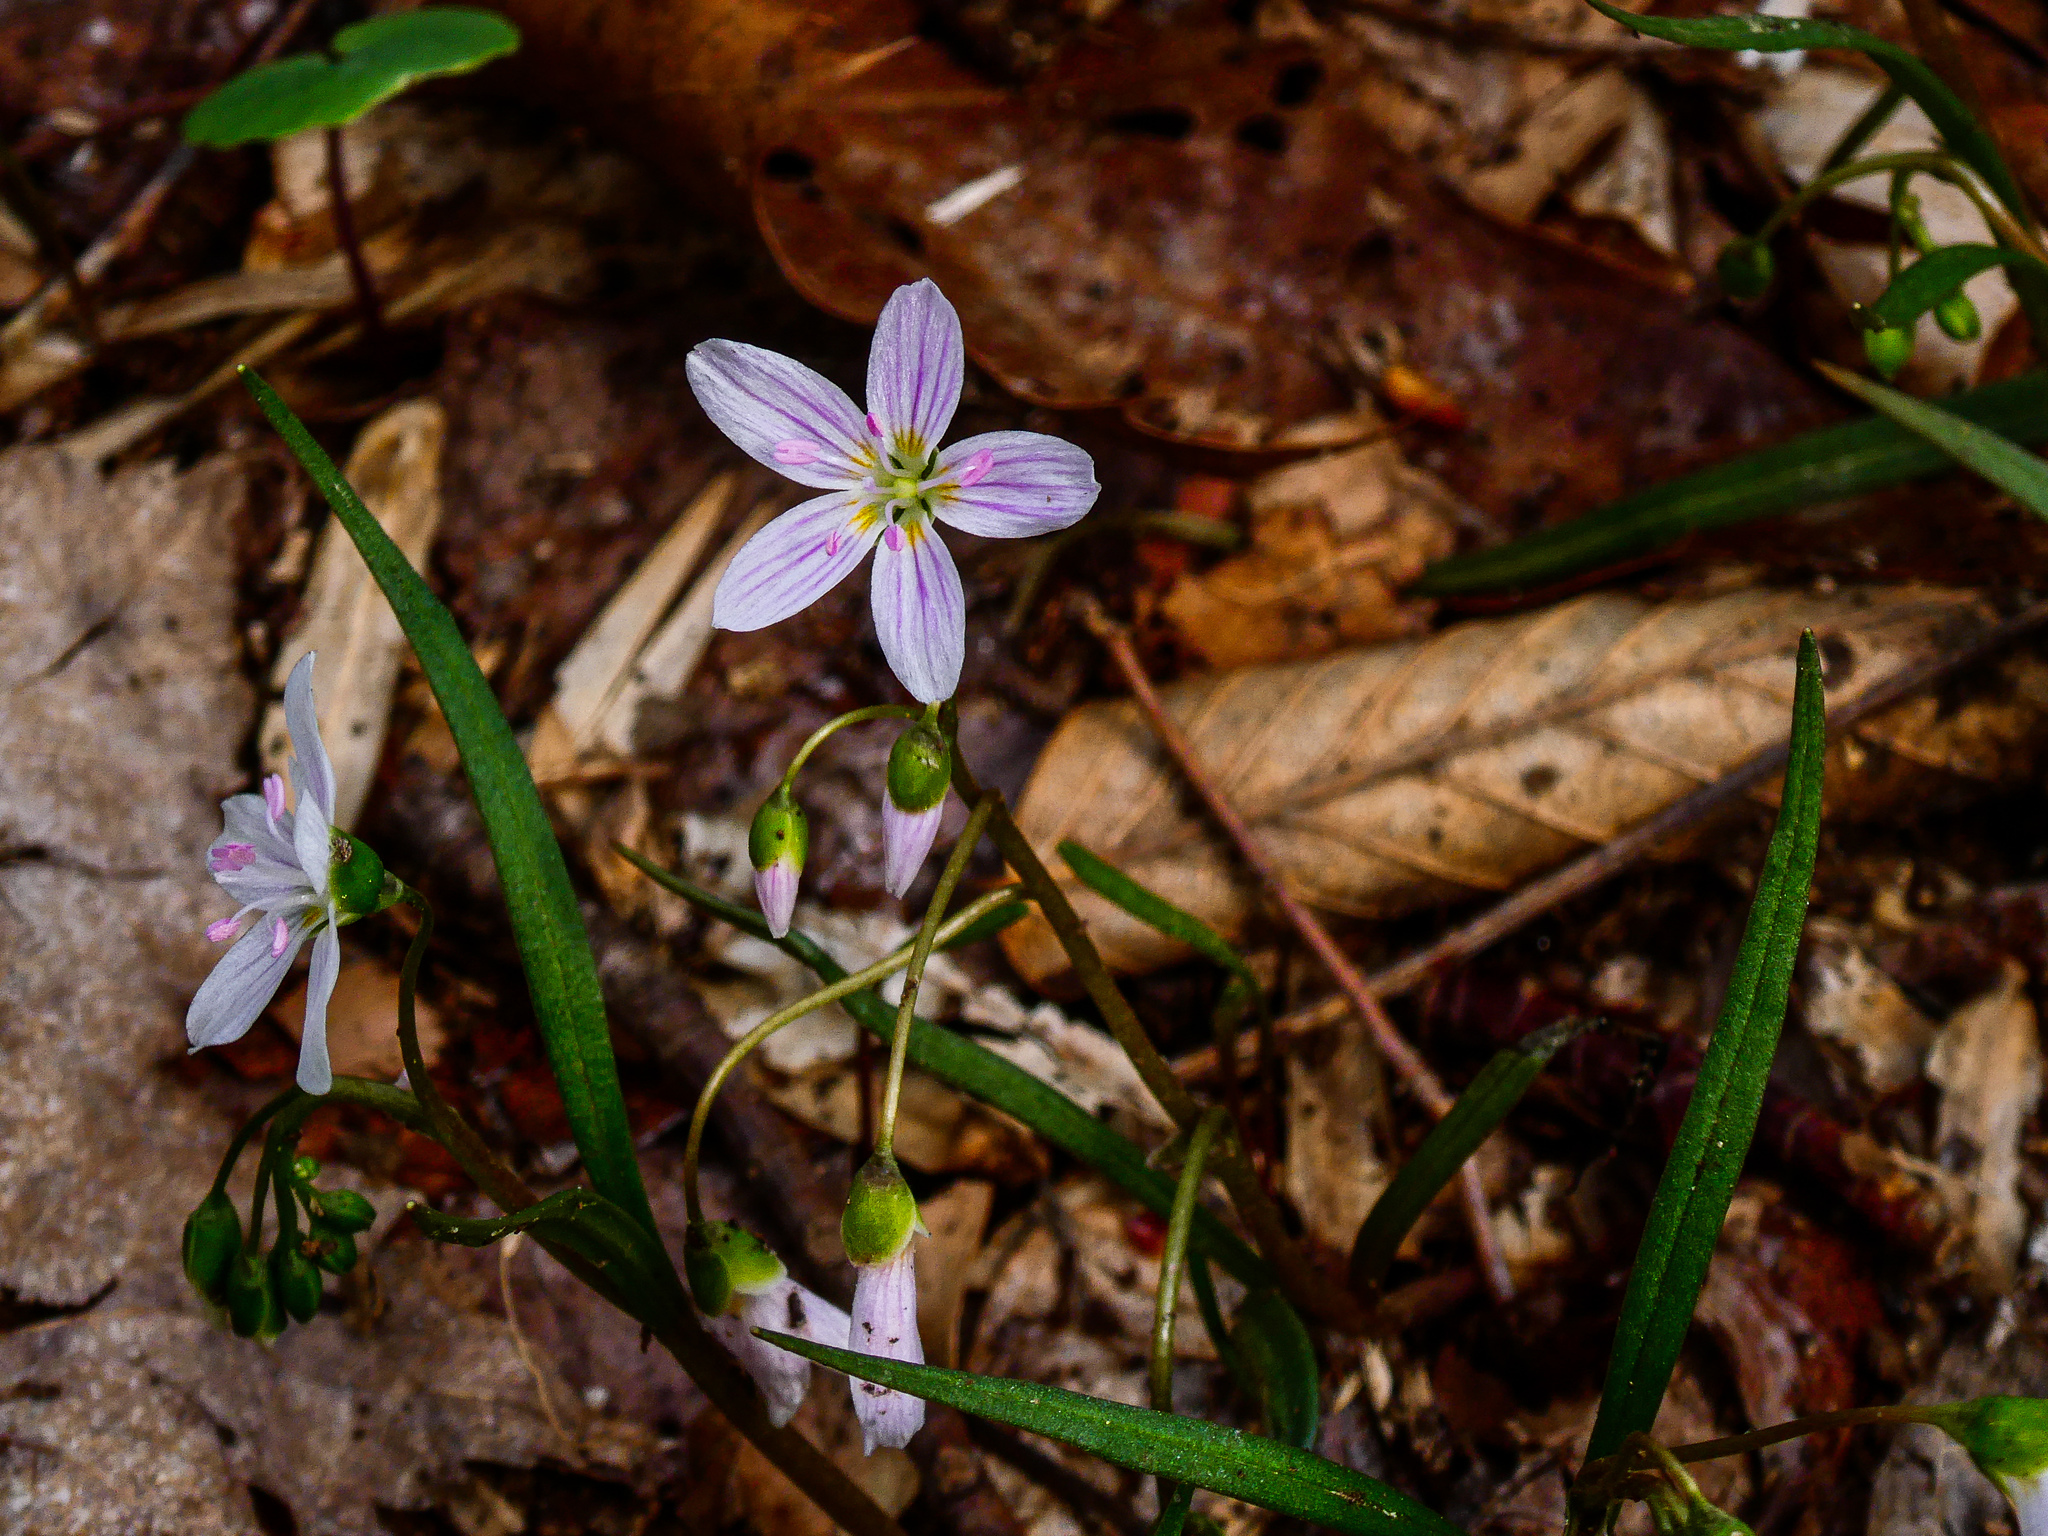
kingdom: Plantae
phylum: Tracheophyta
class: Magnoliopsida
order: Caryophyllales
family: Montiaceae
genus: Claytonia
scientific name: Claytonia virginica
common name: Virginia springbeauty
